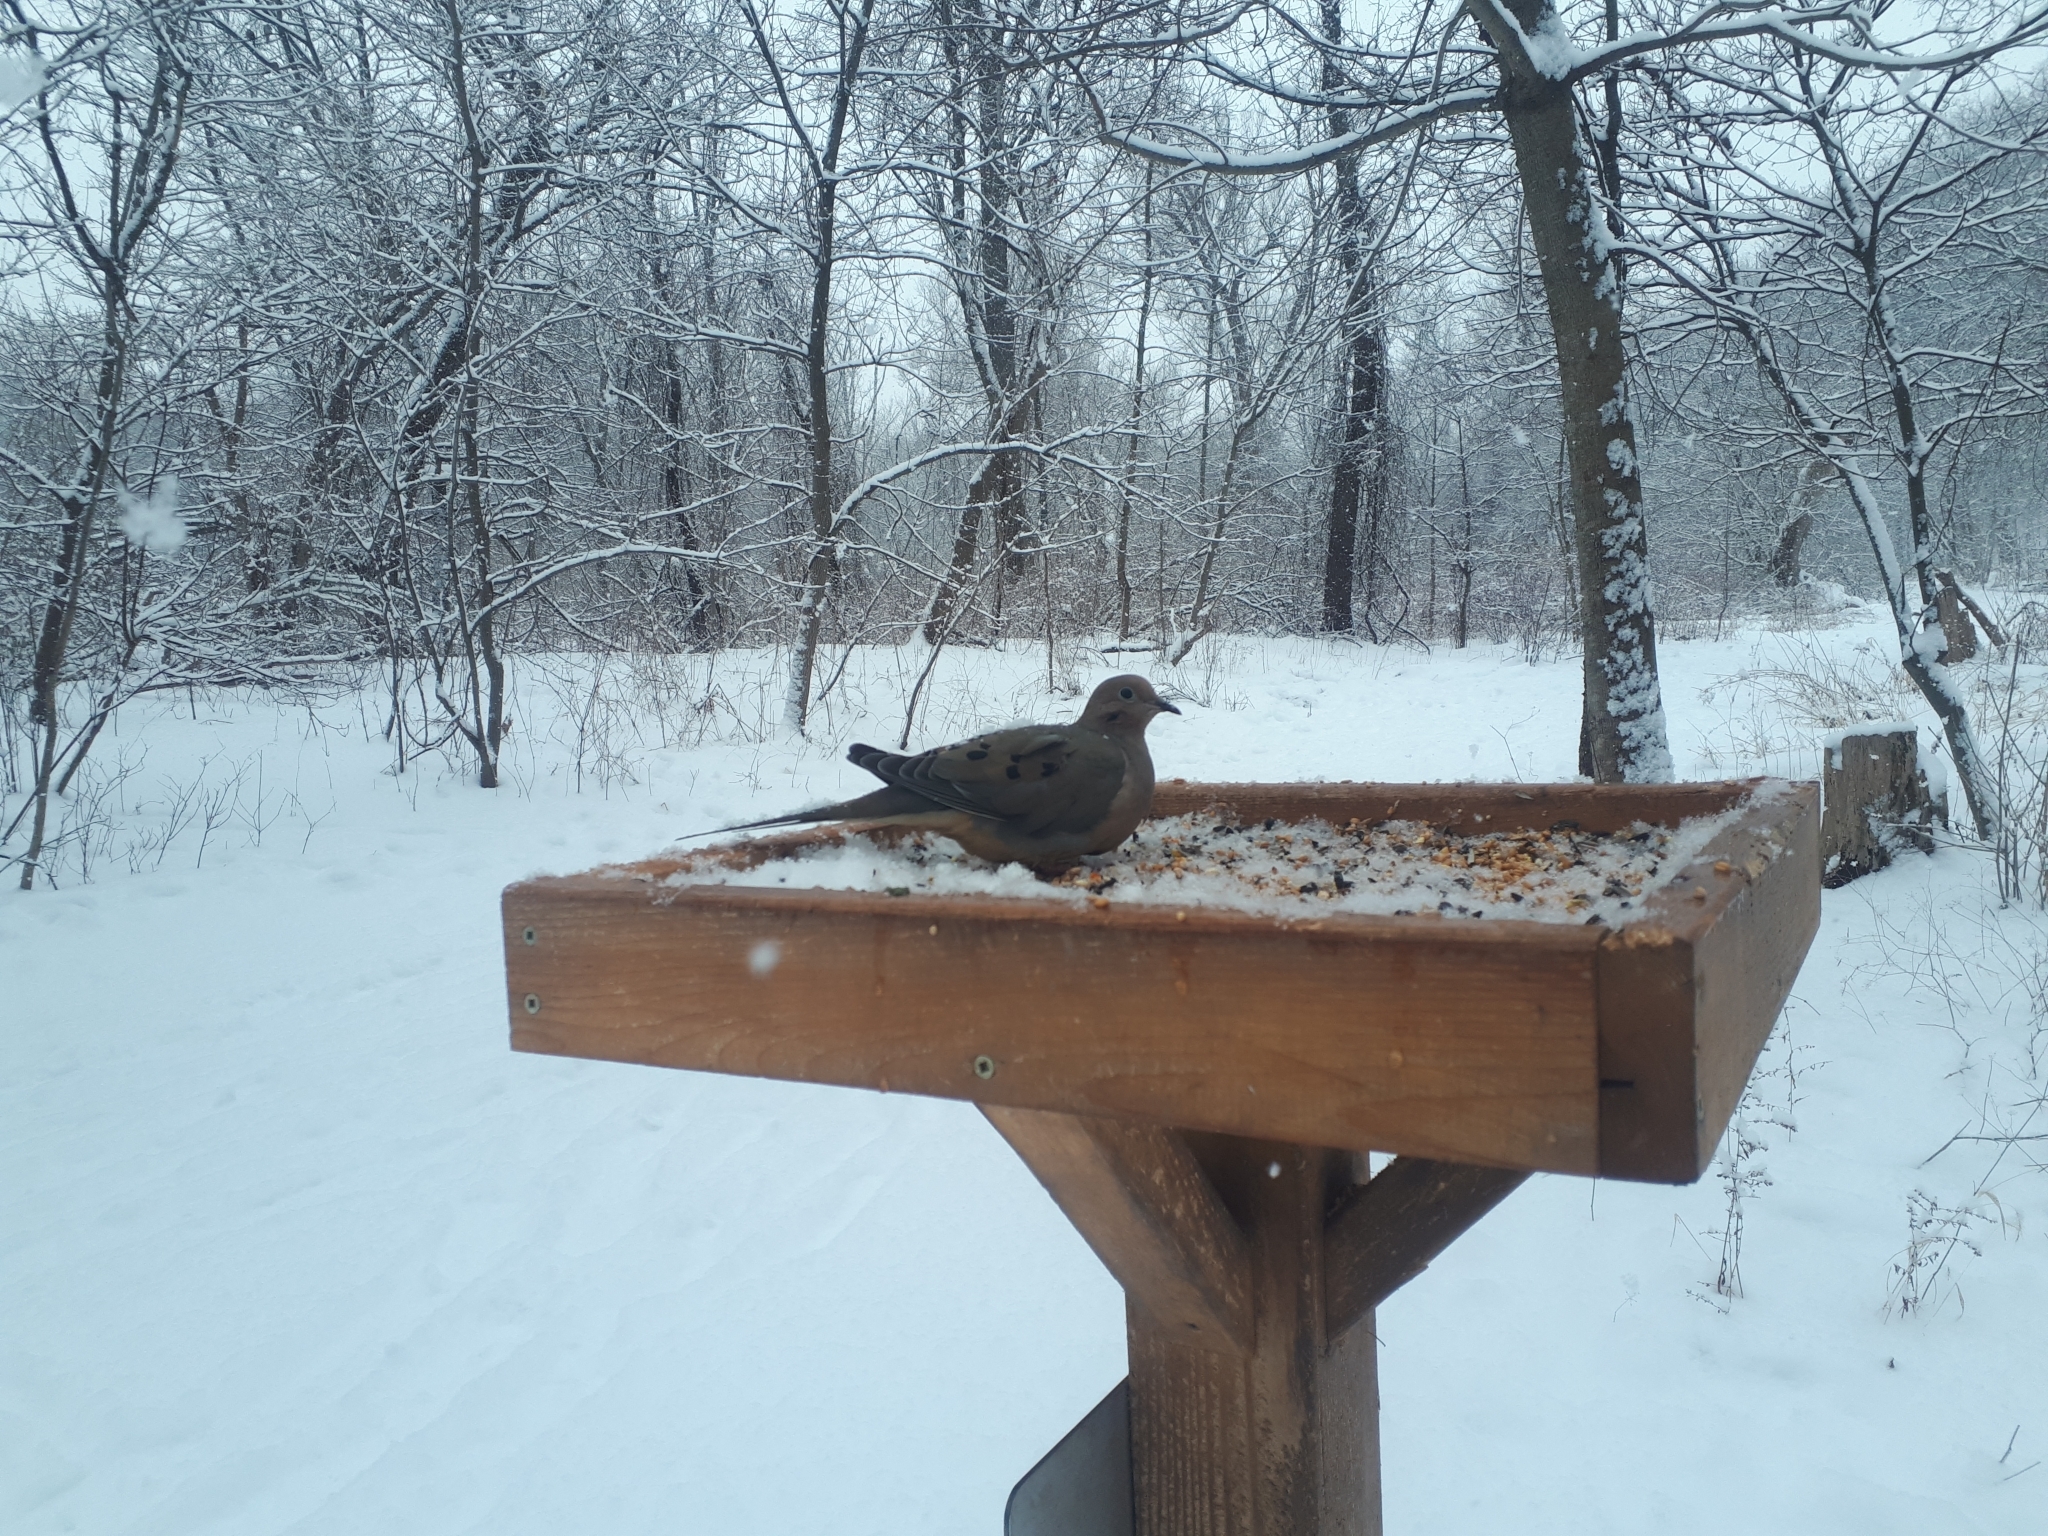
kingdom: Animalia
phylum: Chordata
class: Aves
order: Columbiformes
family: Columbidae
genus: Zenaida
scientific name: Zenaida macroura
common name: Mourning dove
